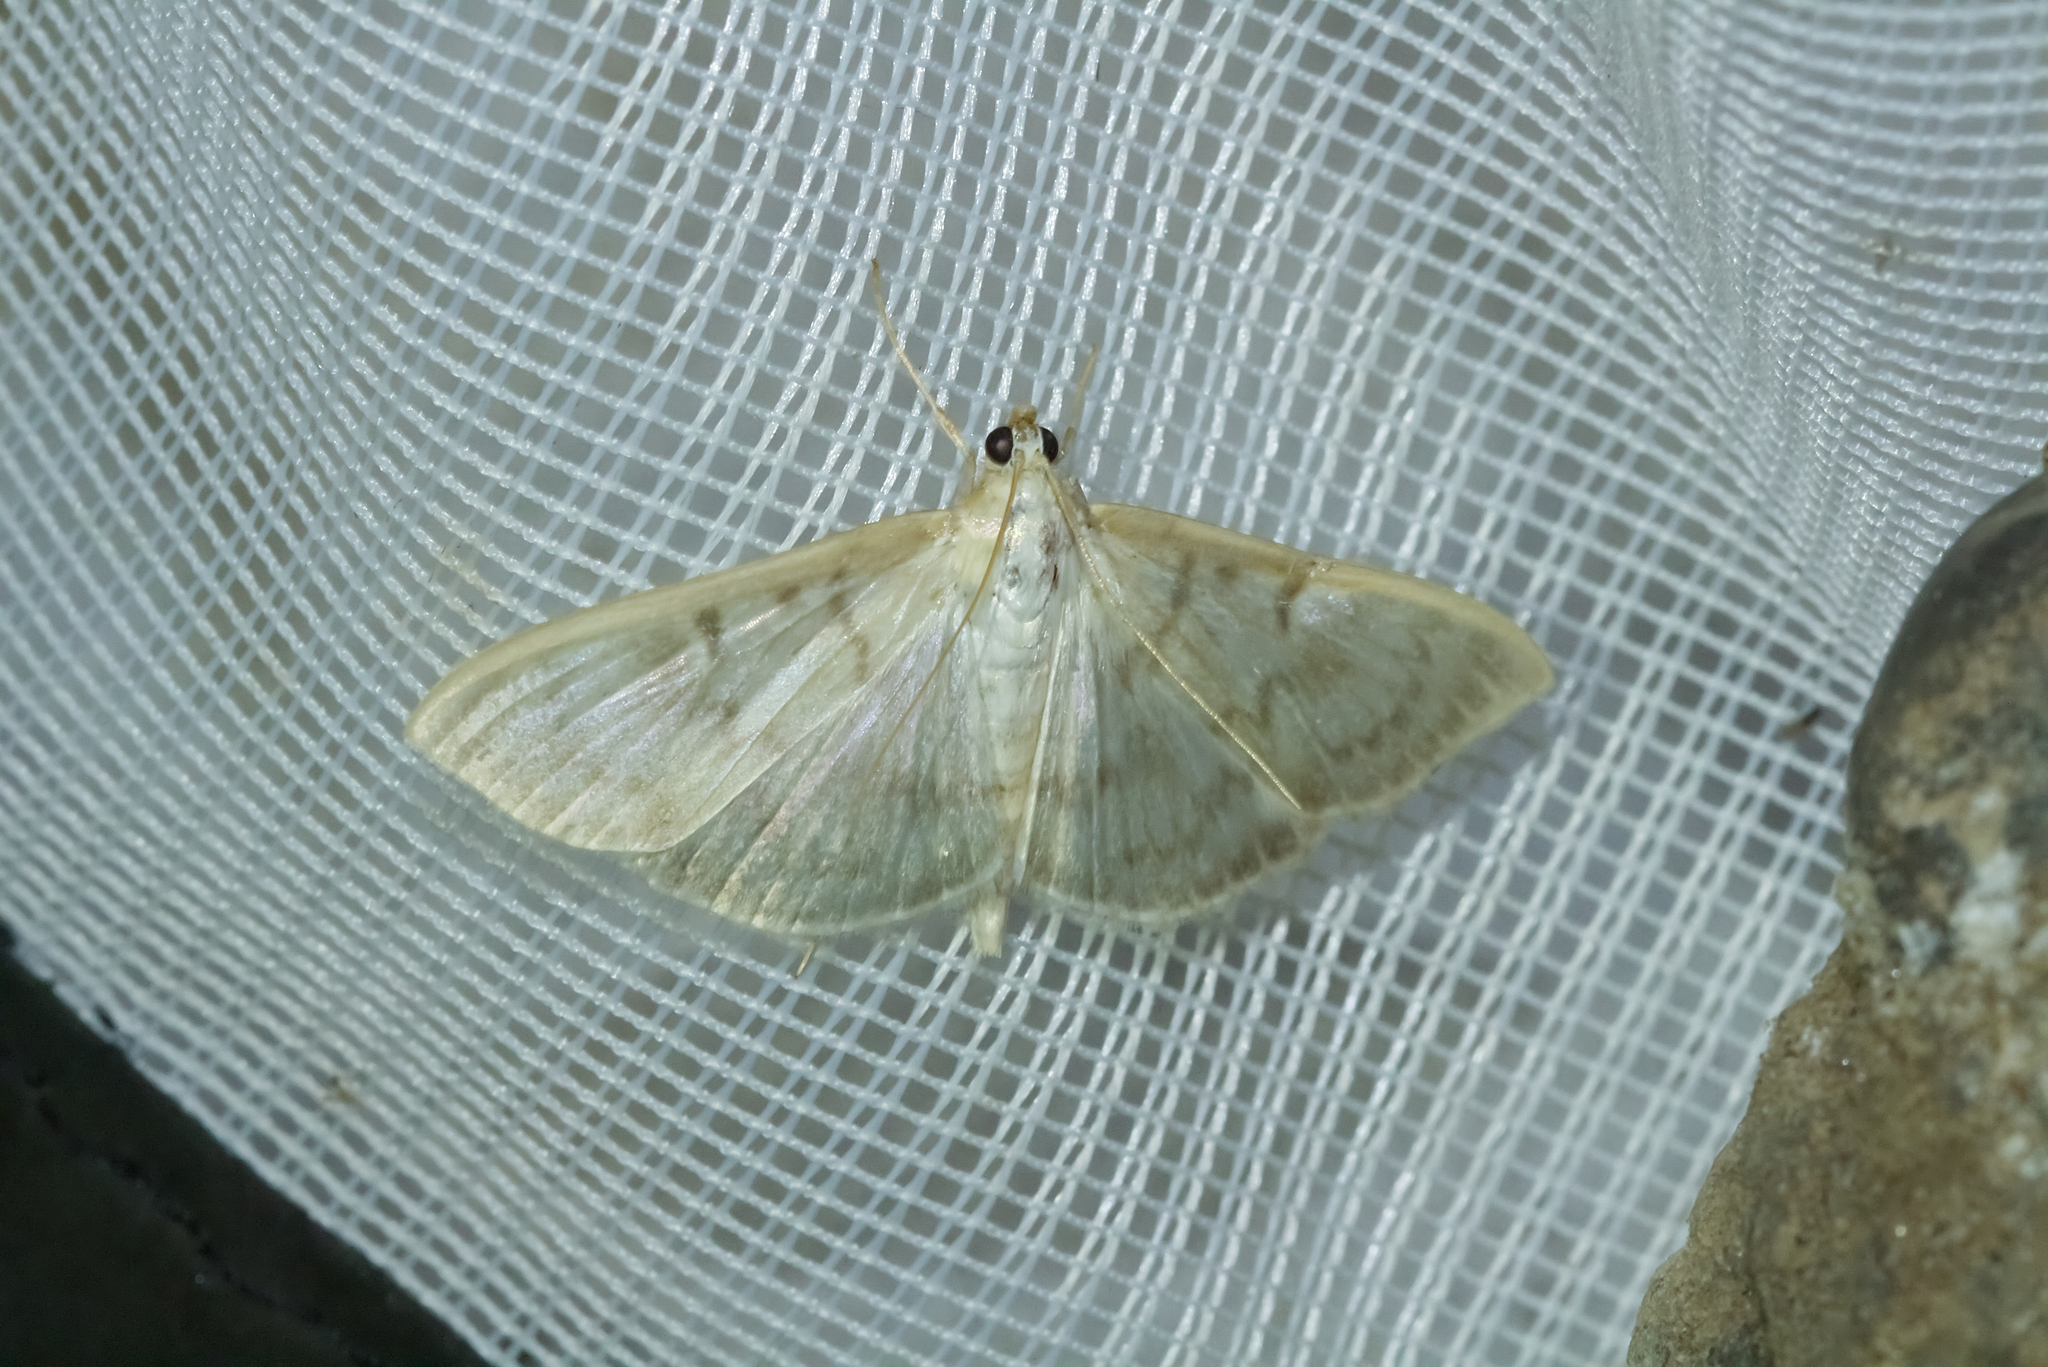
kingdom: Animalia
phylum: Arthropoda
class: Insecta
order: Lepidoptera
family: Crambidae
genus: Patania
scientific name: Patania ruralis
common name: Mother of pearl
